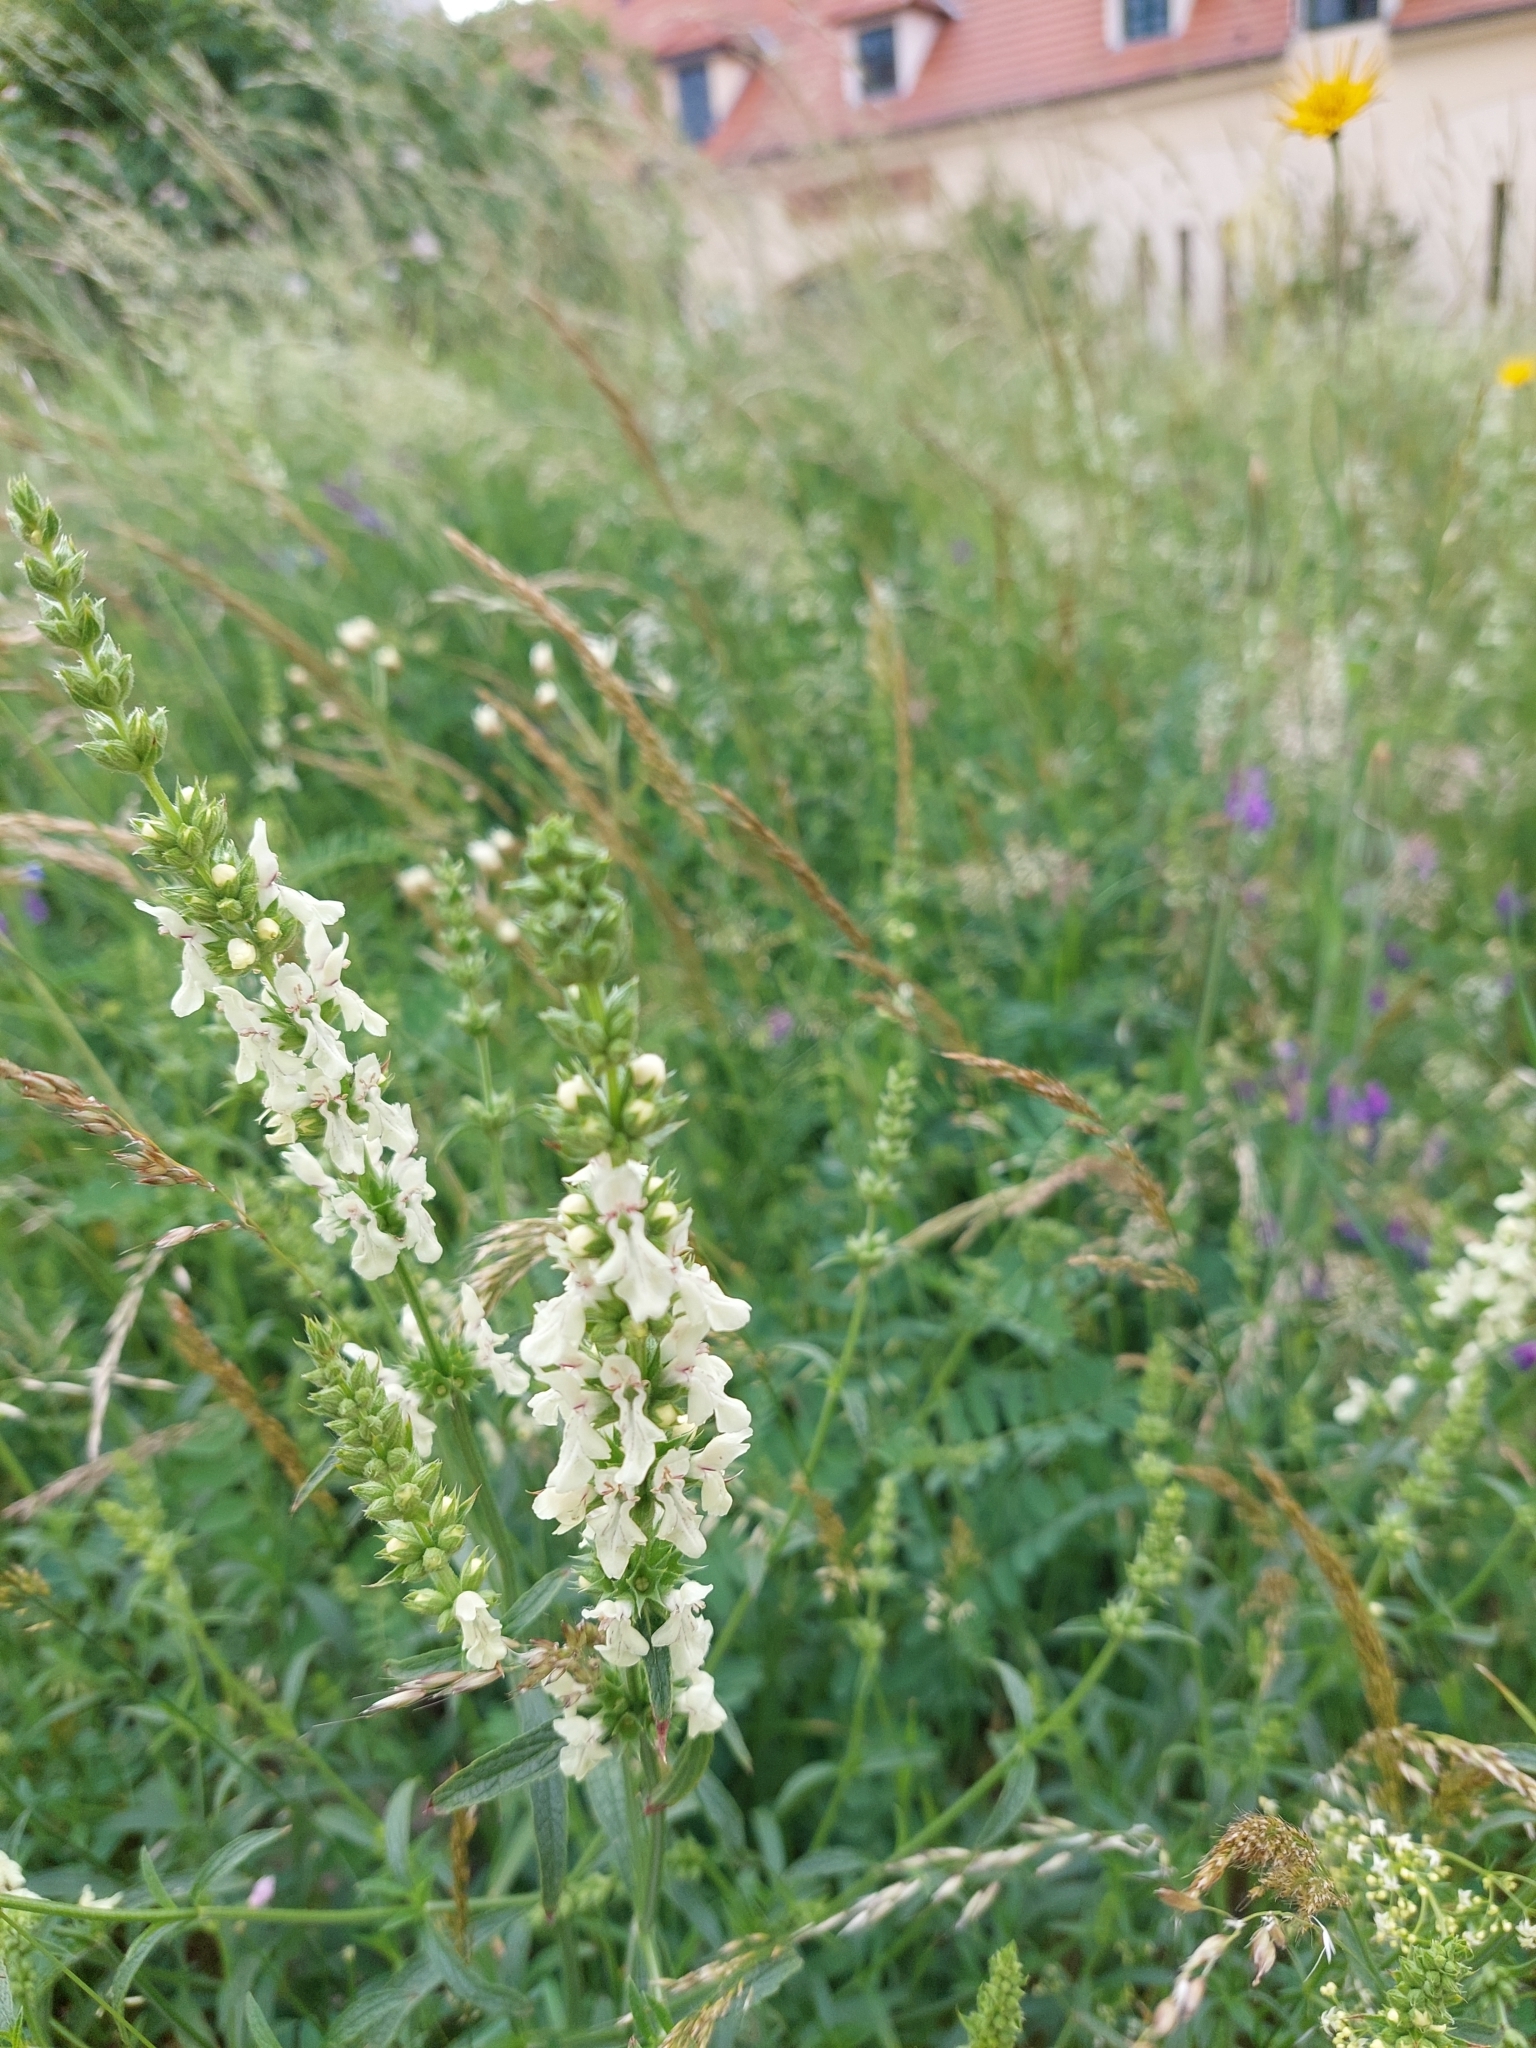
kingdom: Plantae
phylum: Tracheophyta
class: Magnoliopsida
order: Lamiales
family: Lamiaceae
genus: Stachys
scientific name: Stachys recta
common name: Perennial yellow-woundwort
